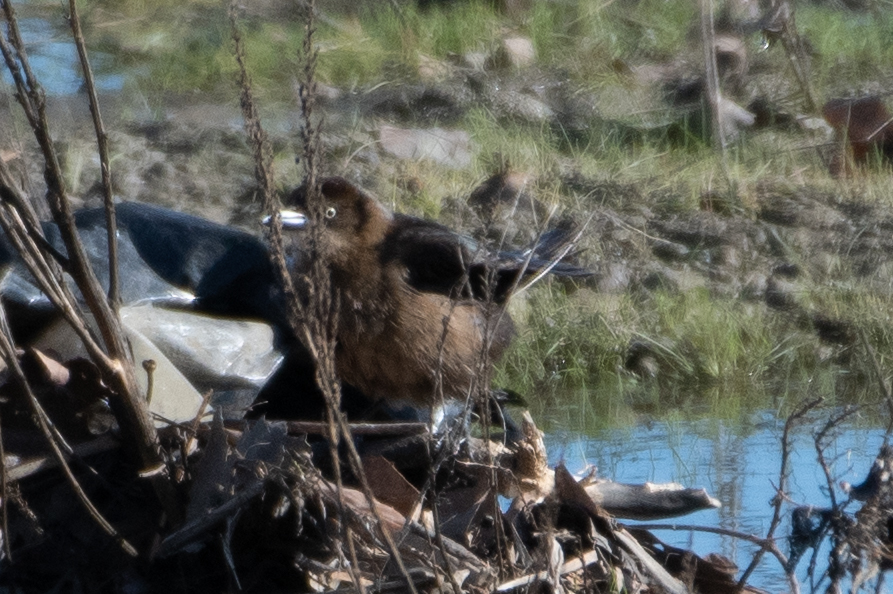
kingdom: Animalia
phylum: Chordata
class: Aves
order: Passeriformes
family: Icteridae
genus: Quiscalus
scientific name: Quiscalus mexicanus
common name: Great-tailed grackle
